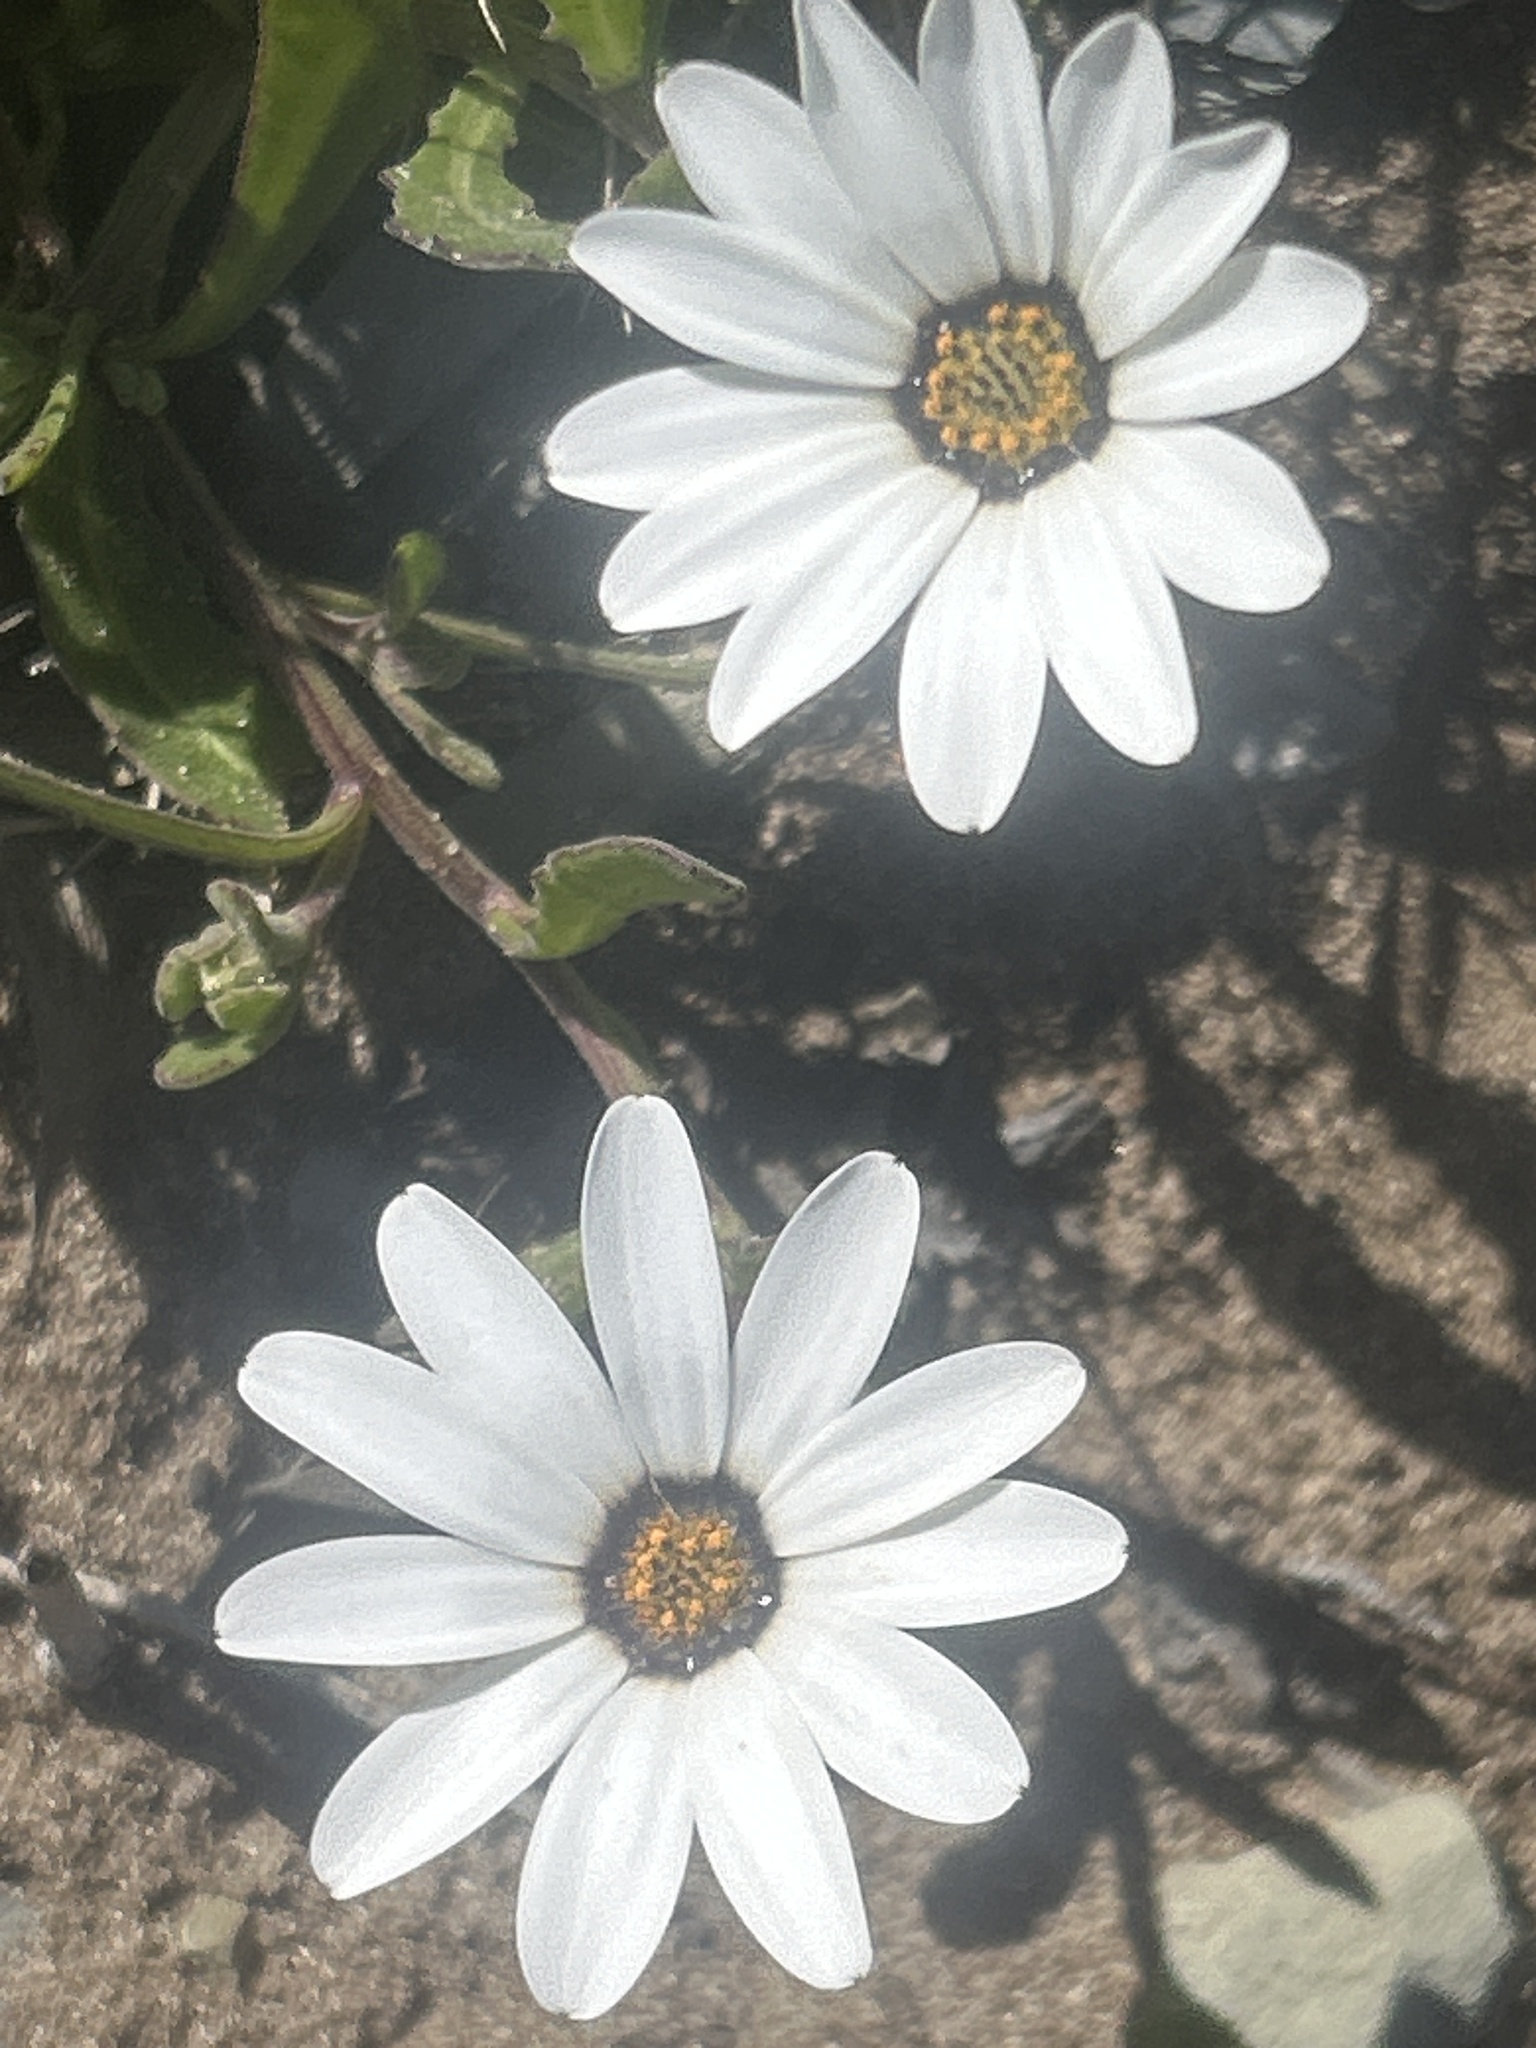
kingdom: Plantae
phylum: Tracheophyta
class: Magnoliopsida
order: Asterales
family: Asteraceae
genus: Dimorphotheca
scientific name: Dimorphotheca pluvialis
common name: Weather prophet
